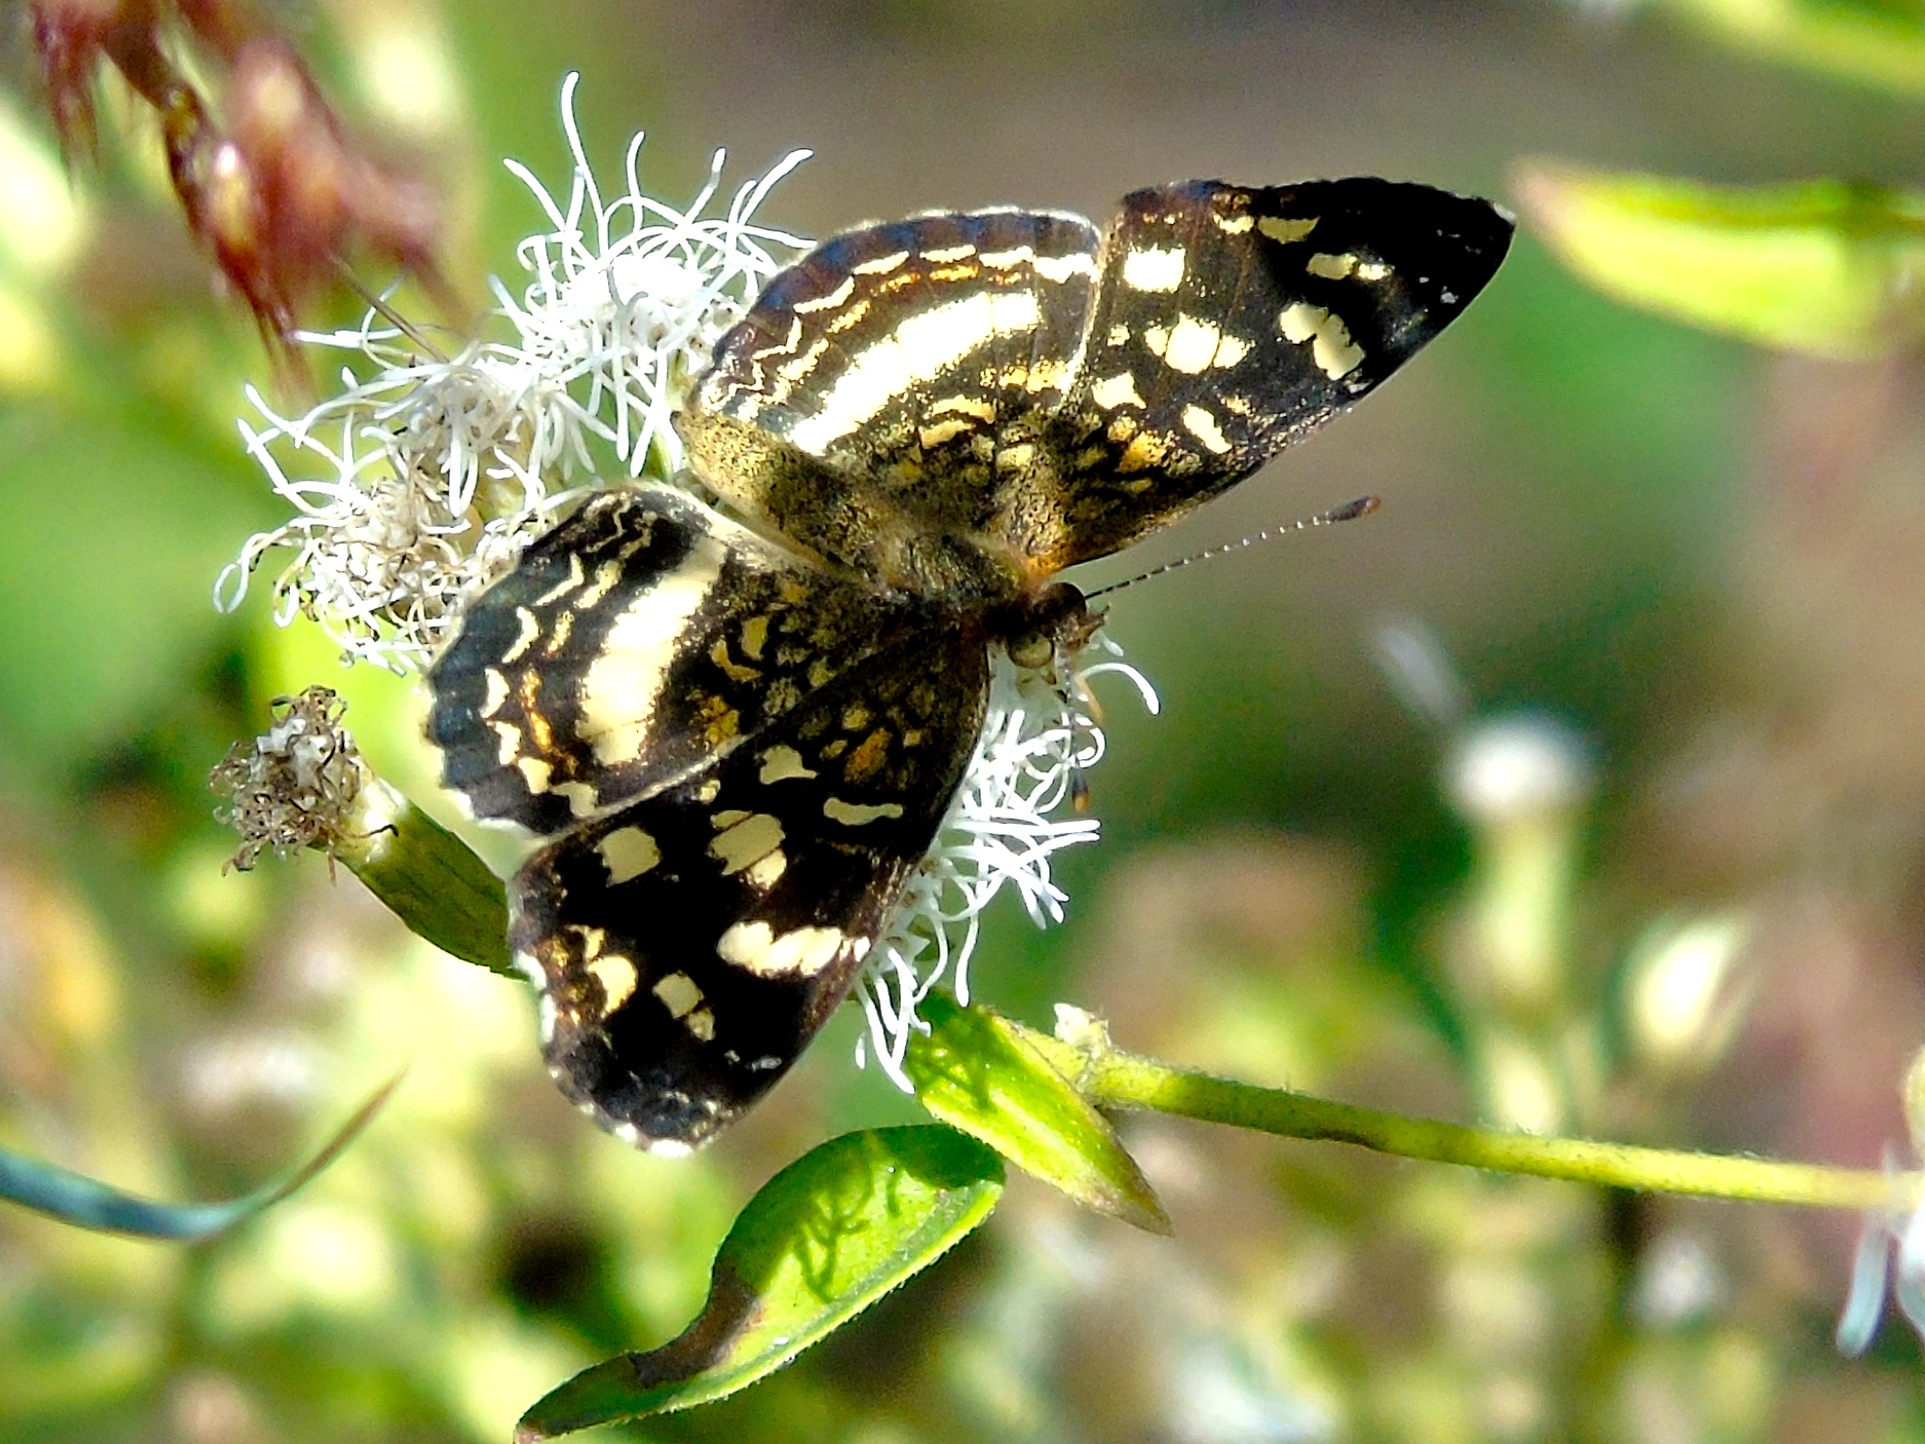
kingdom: Animalia
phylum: Arthropoda
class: Insecta
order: Lepidoptera
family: Nymphalidae
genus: Anthanassa
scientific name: Anthanassa tulcis
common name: Pale-banded crescent
